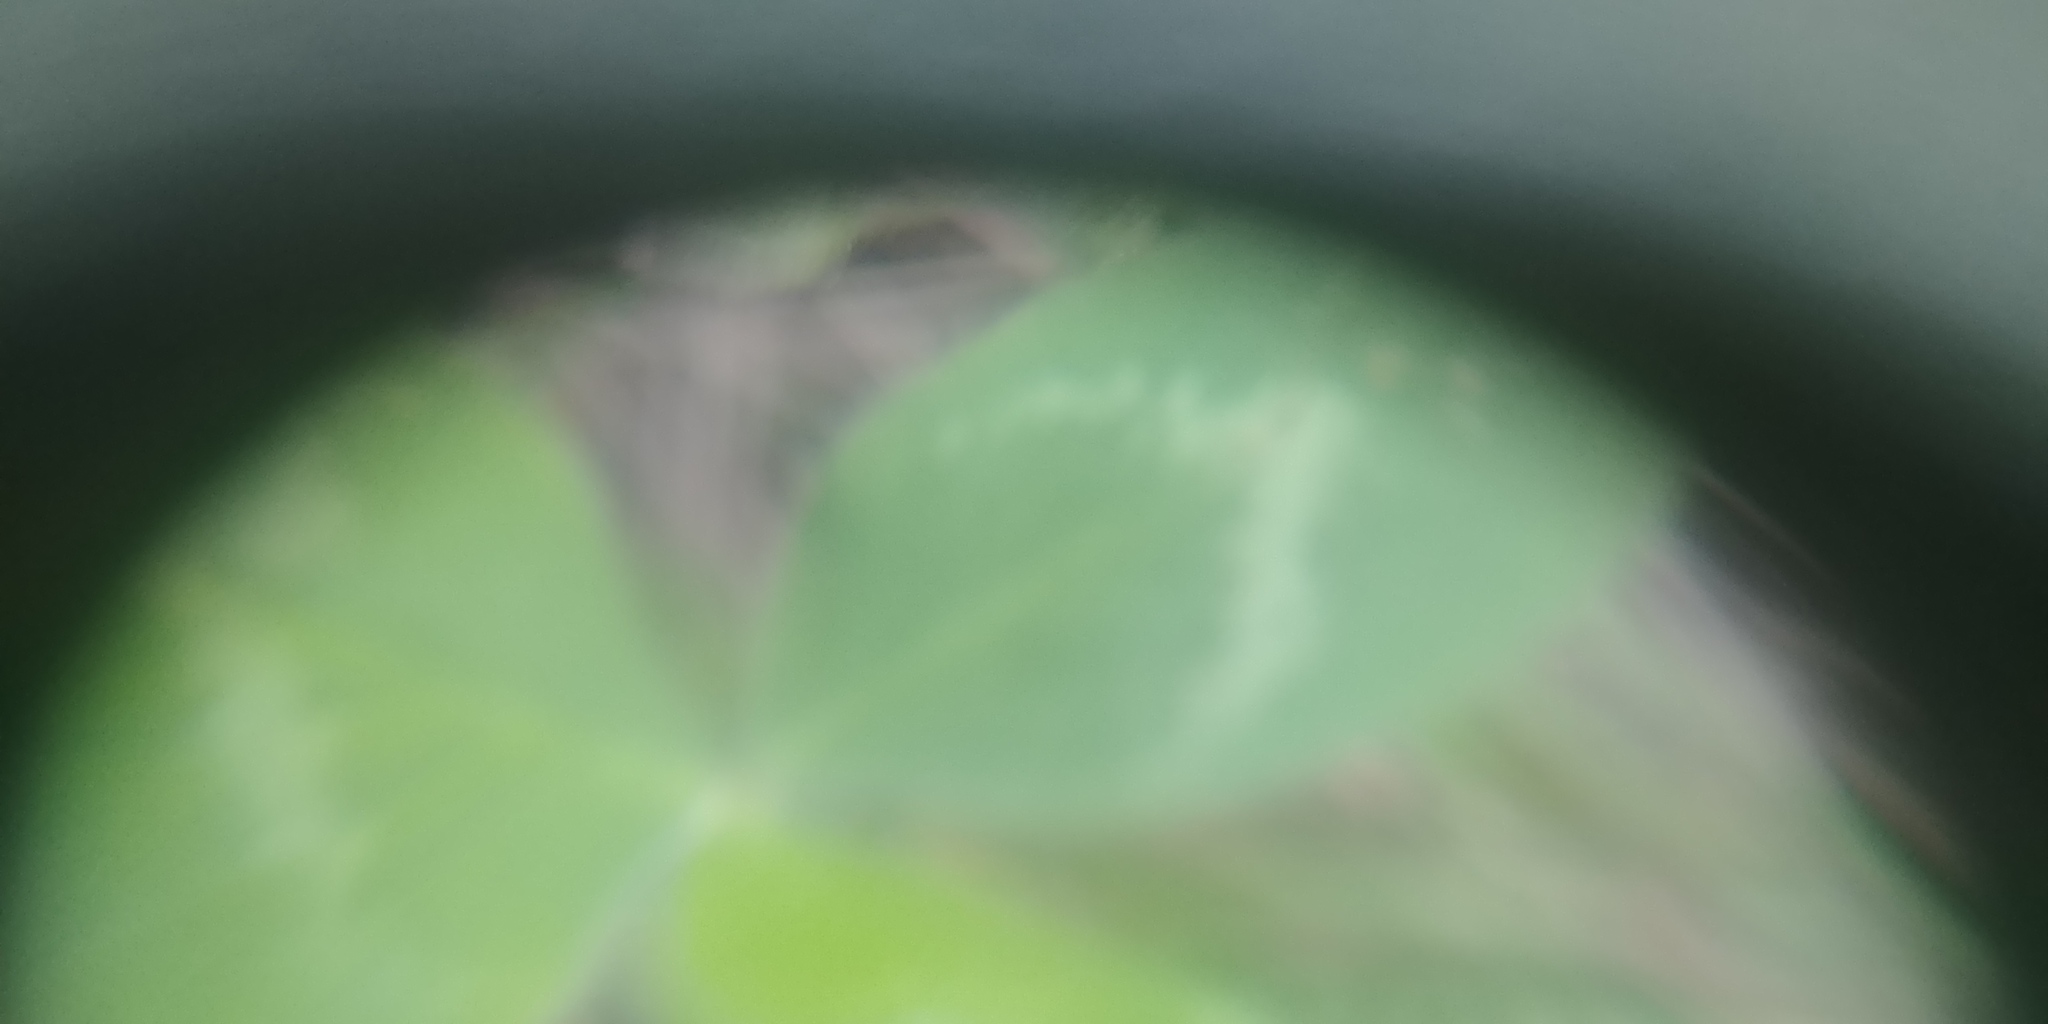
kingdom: Plantae
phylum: Tracheophyta
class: Magnoliopsida
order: Fabales
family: Fabaceae
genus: Trifolium
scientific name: Trifolium
